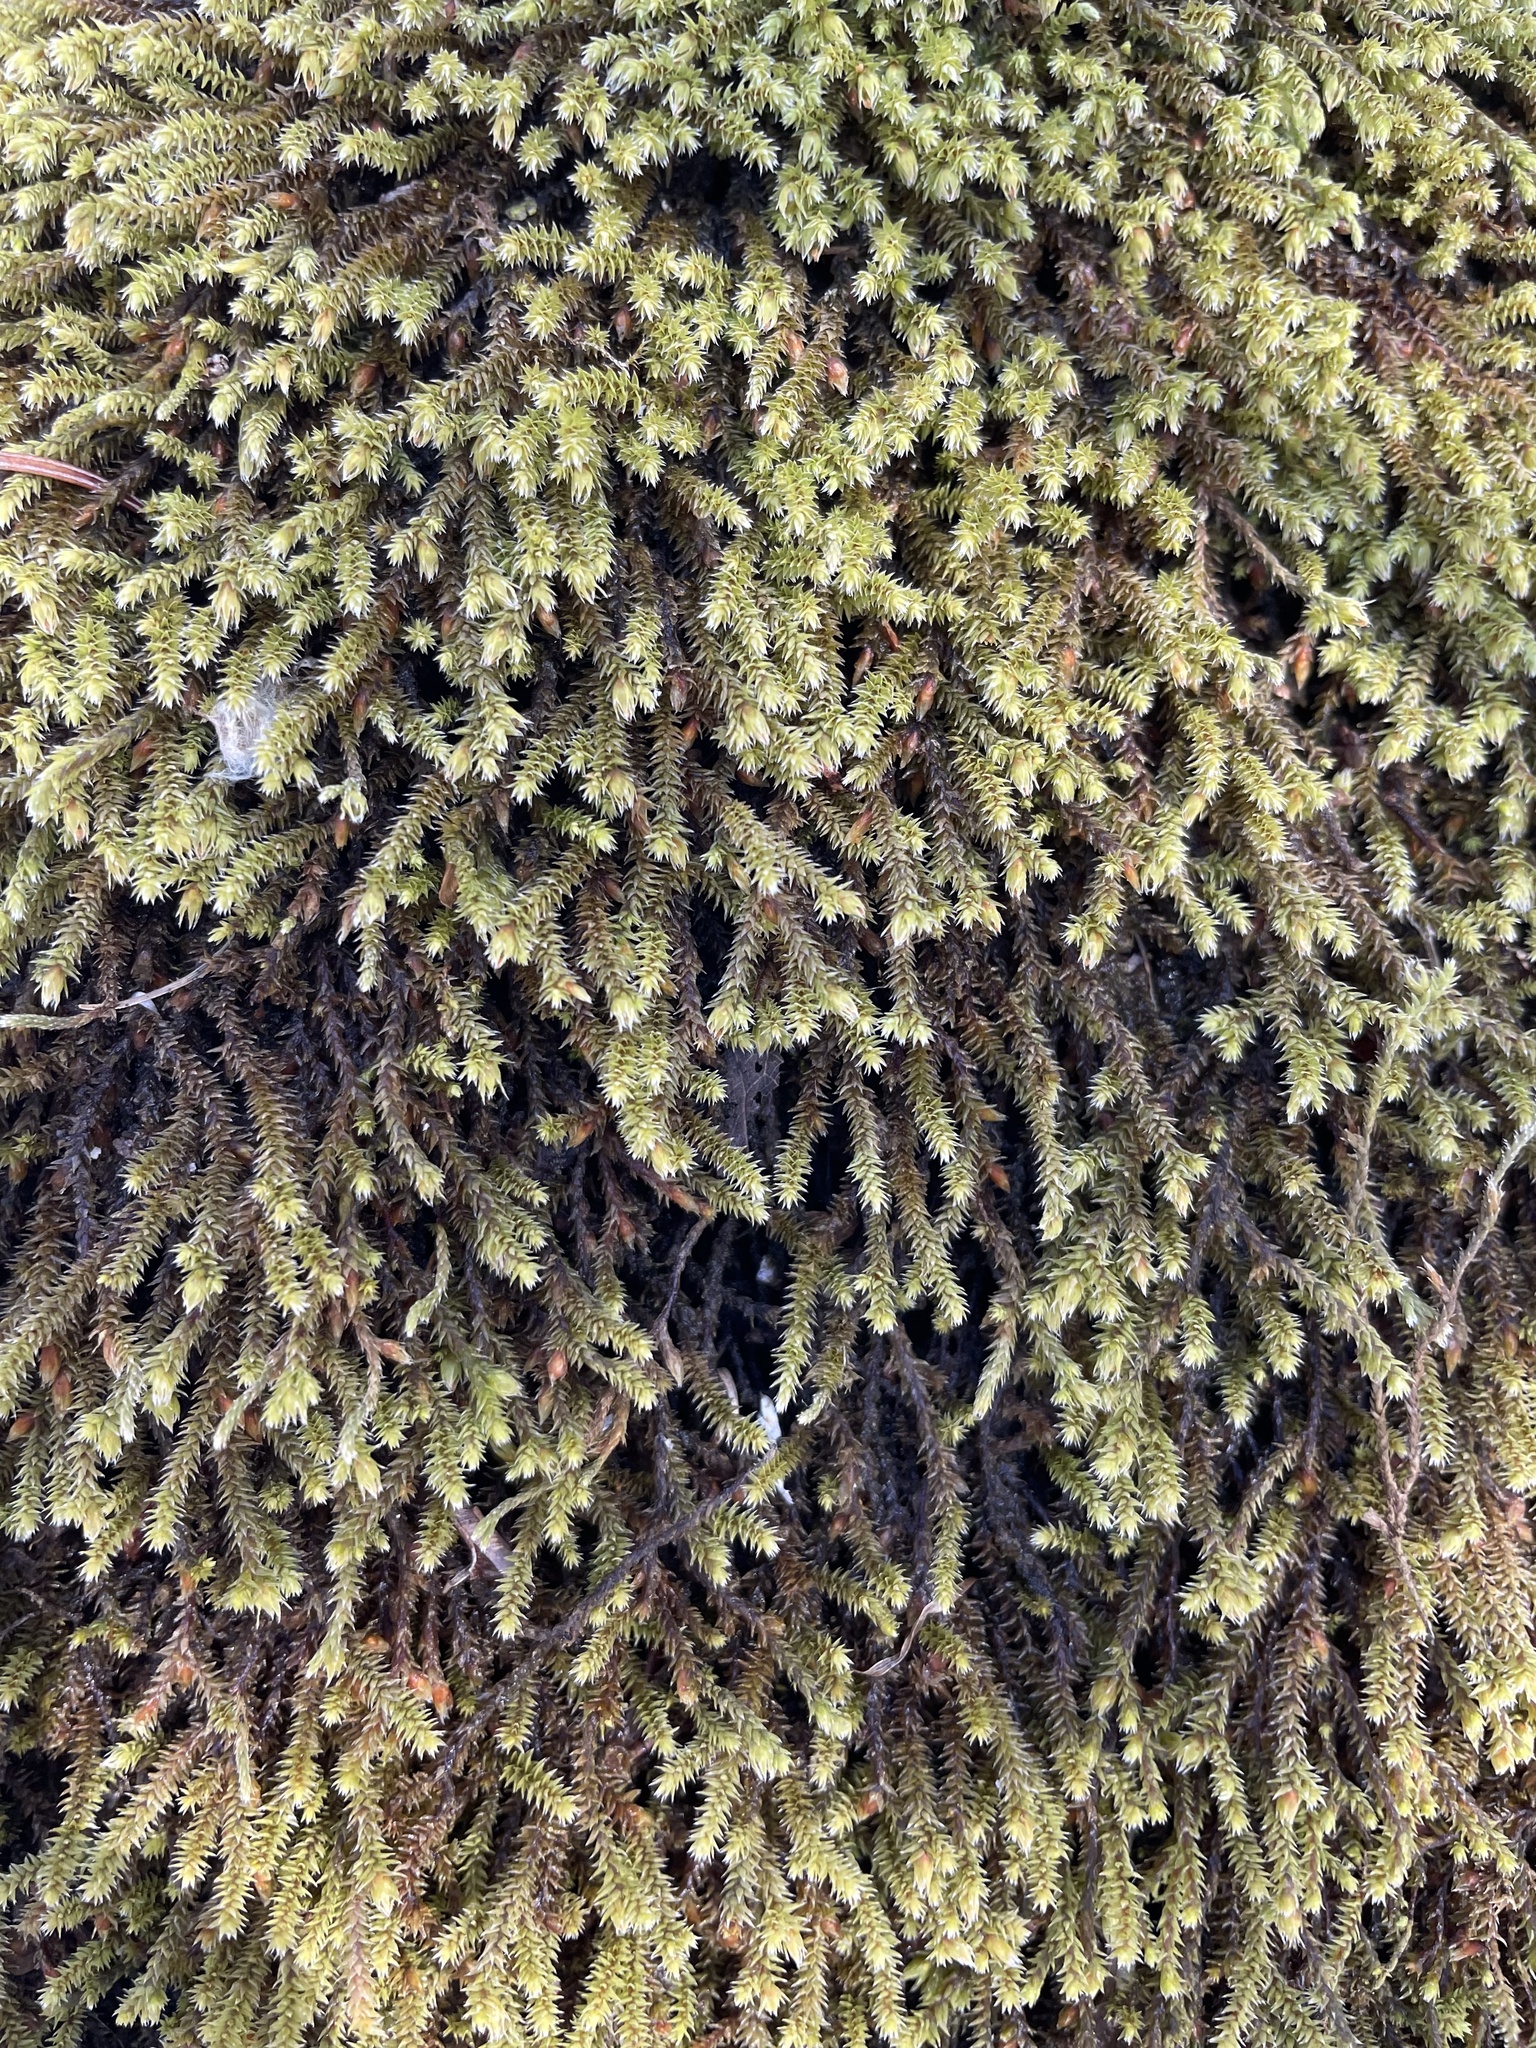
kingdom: Plantae
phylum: Bryophyta
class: Bryopsida
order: Hedwigiales
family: Hedwigiaceae
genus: Hedwigia
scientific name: Hedwigia ciliata
